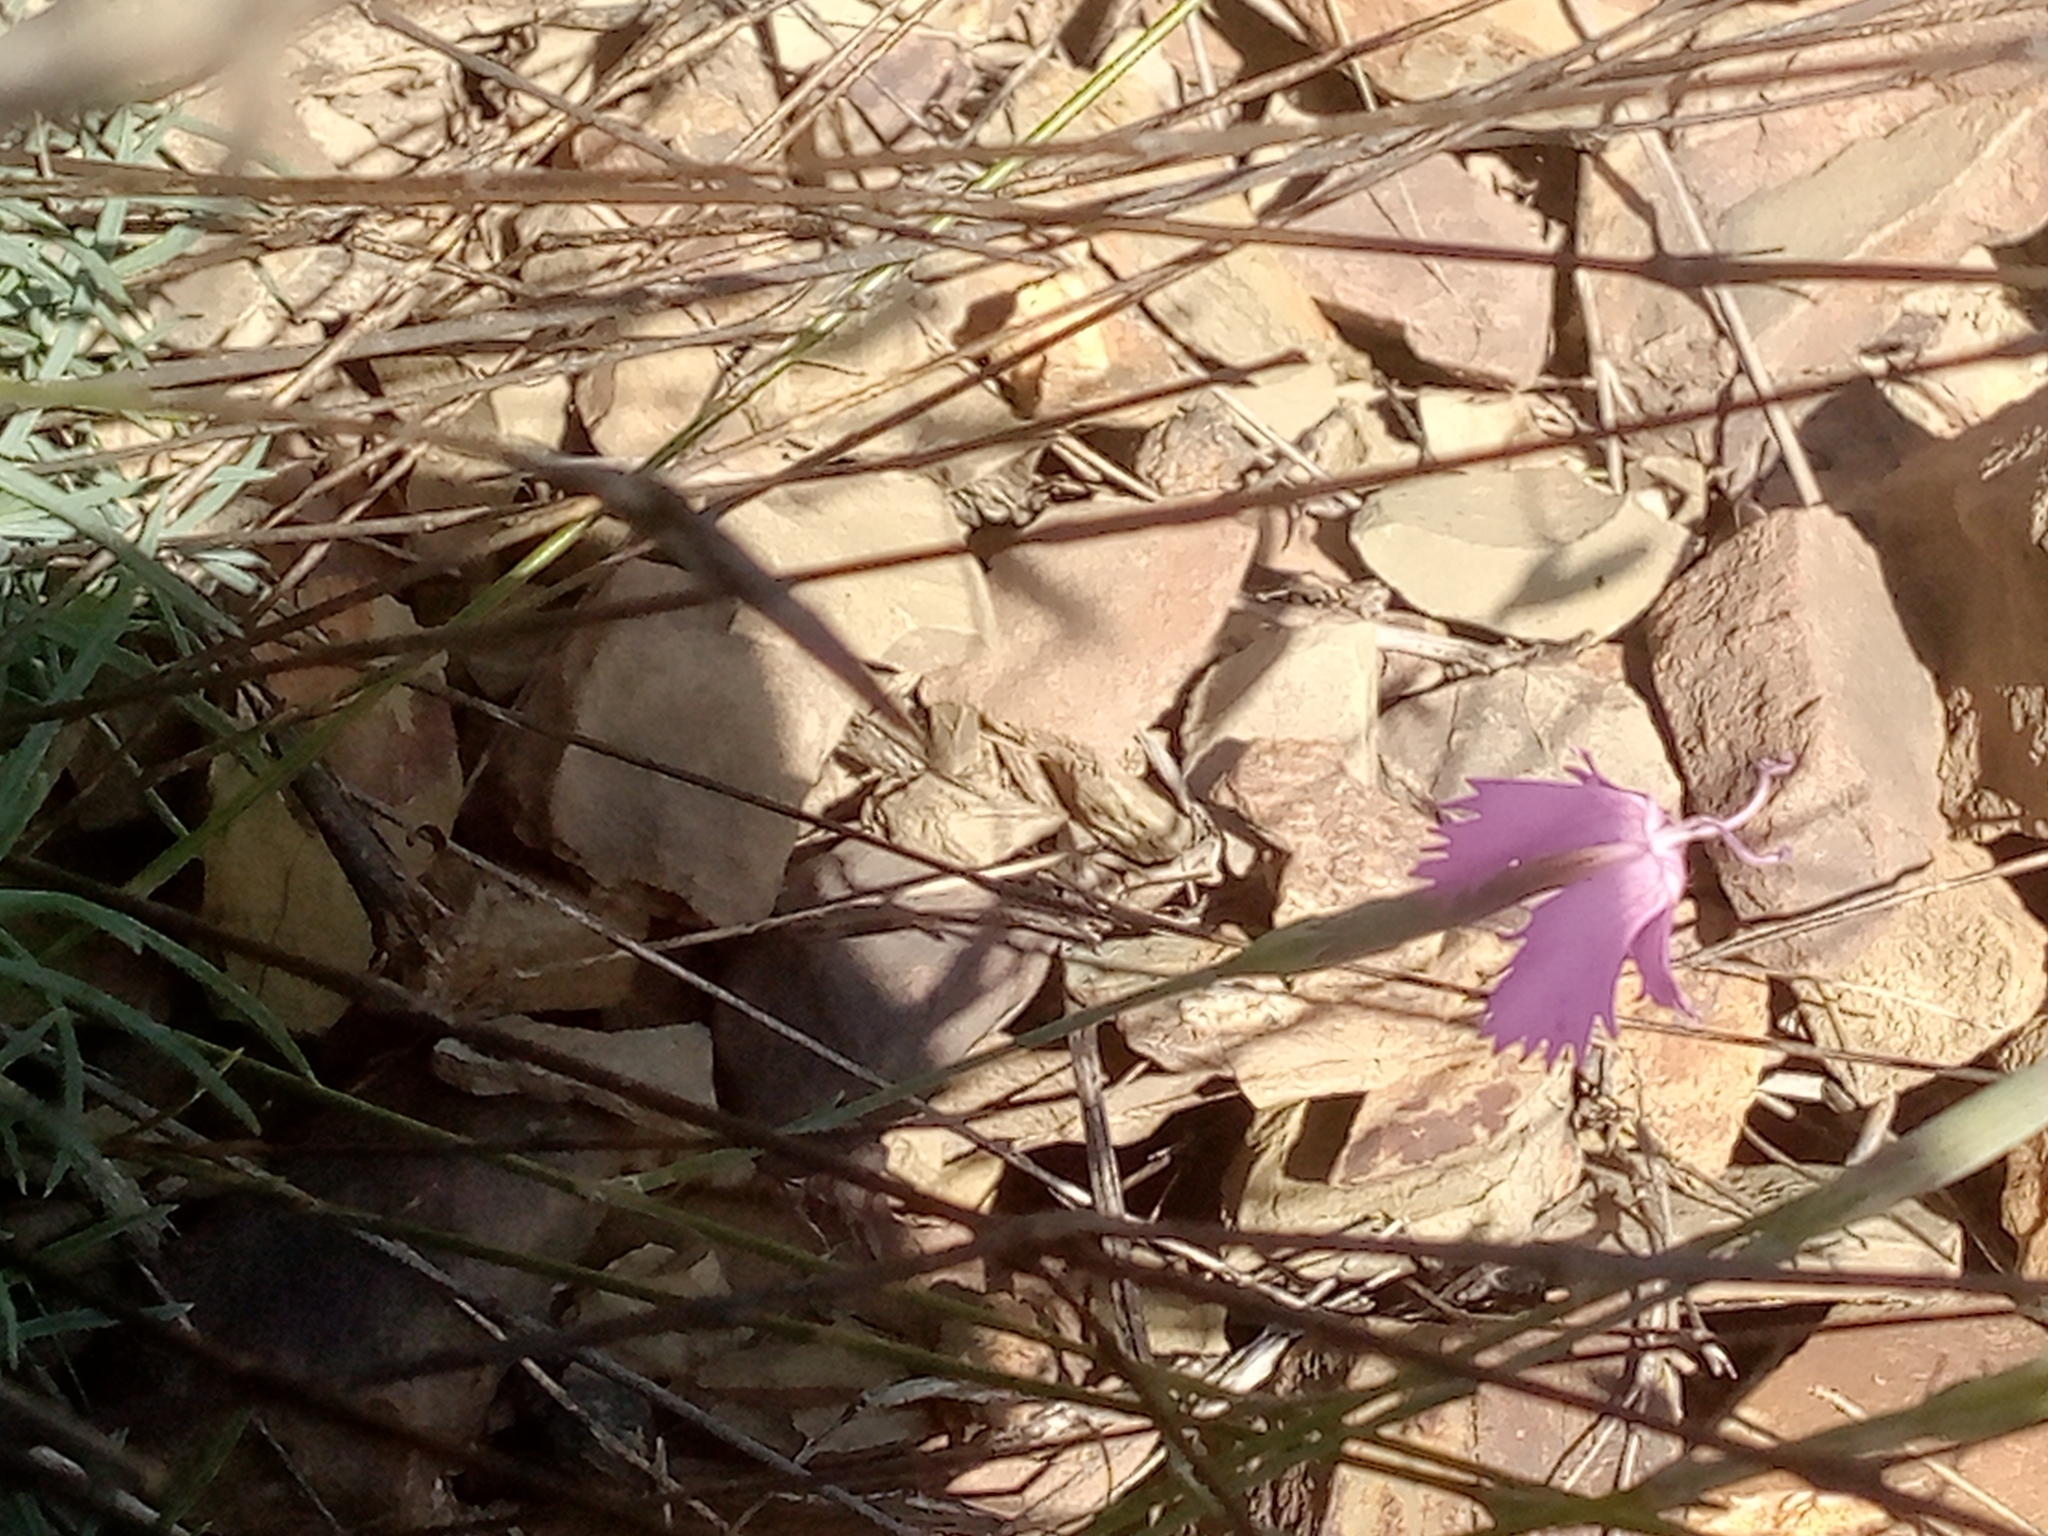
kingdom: Plantae
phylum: Tracheophyta
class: Magnoliopsida
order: Caryophyllales
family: Caryophyllaceae
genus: Dianthus
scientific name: Dianthus lusitanus
